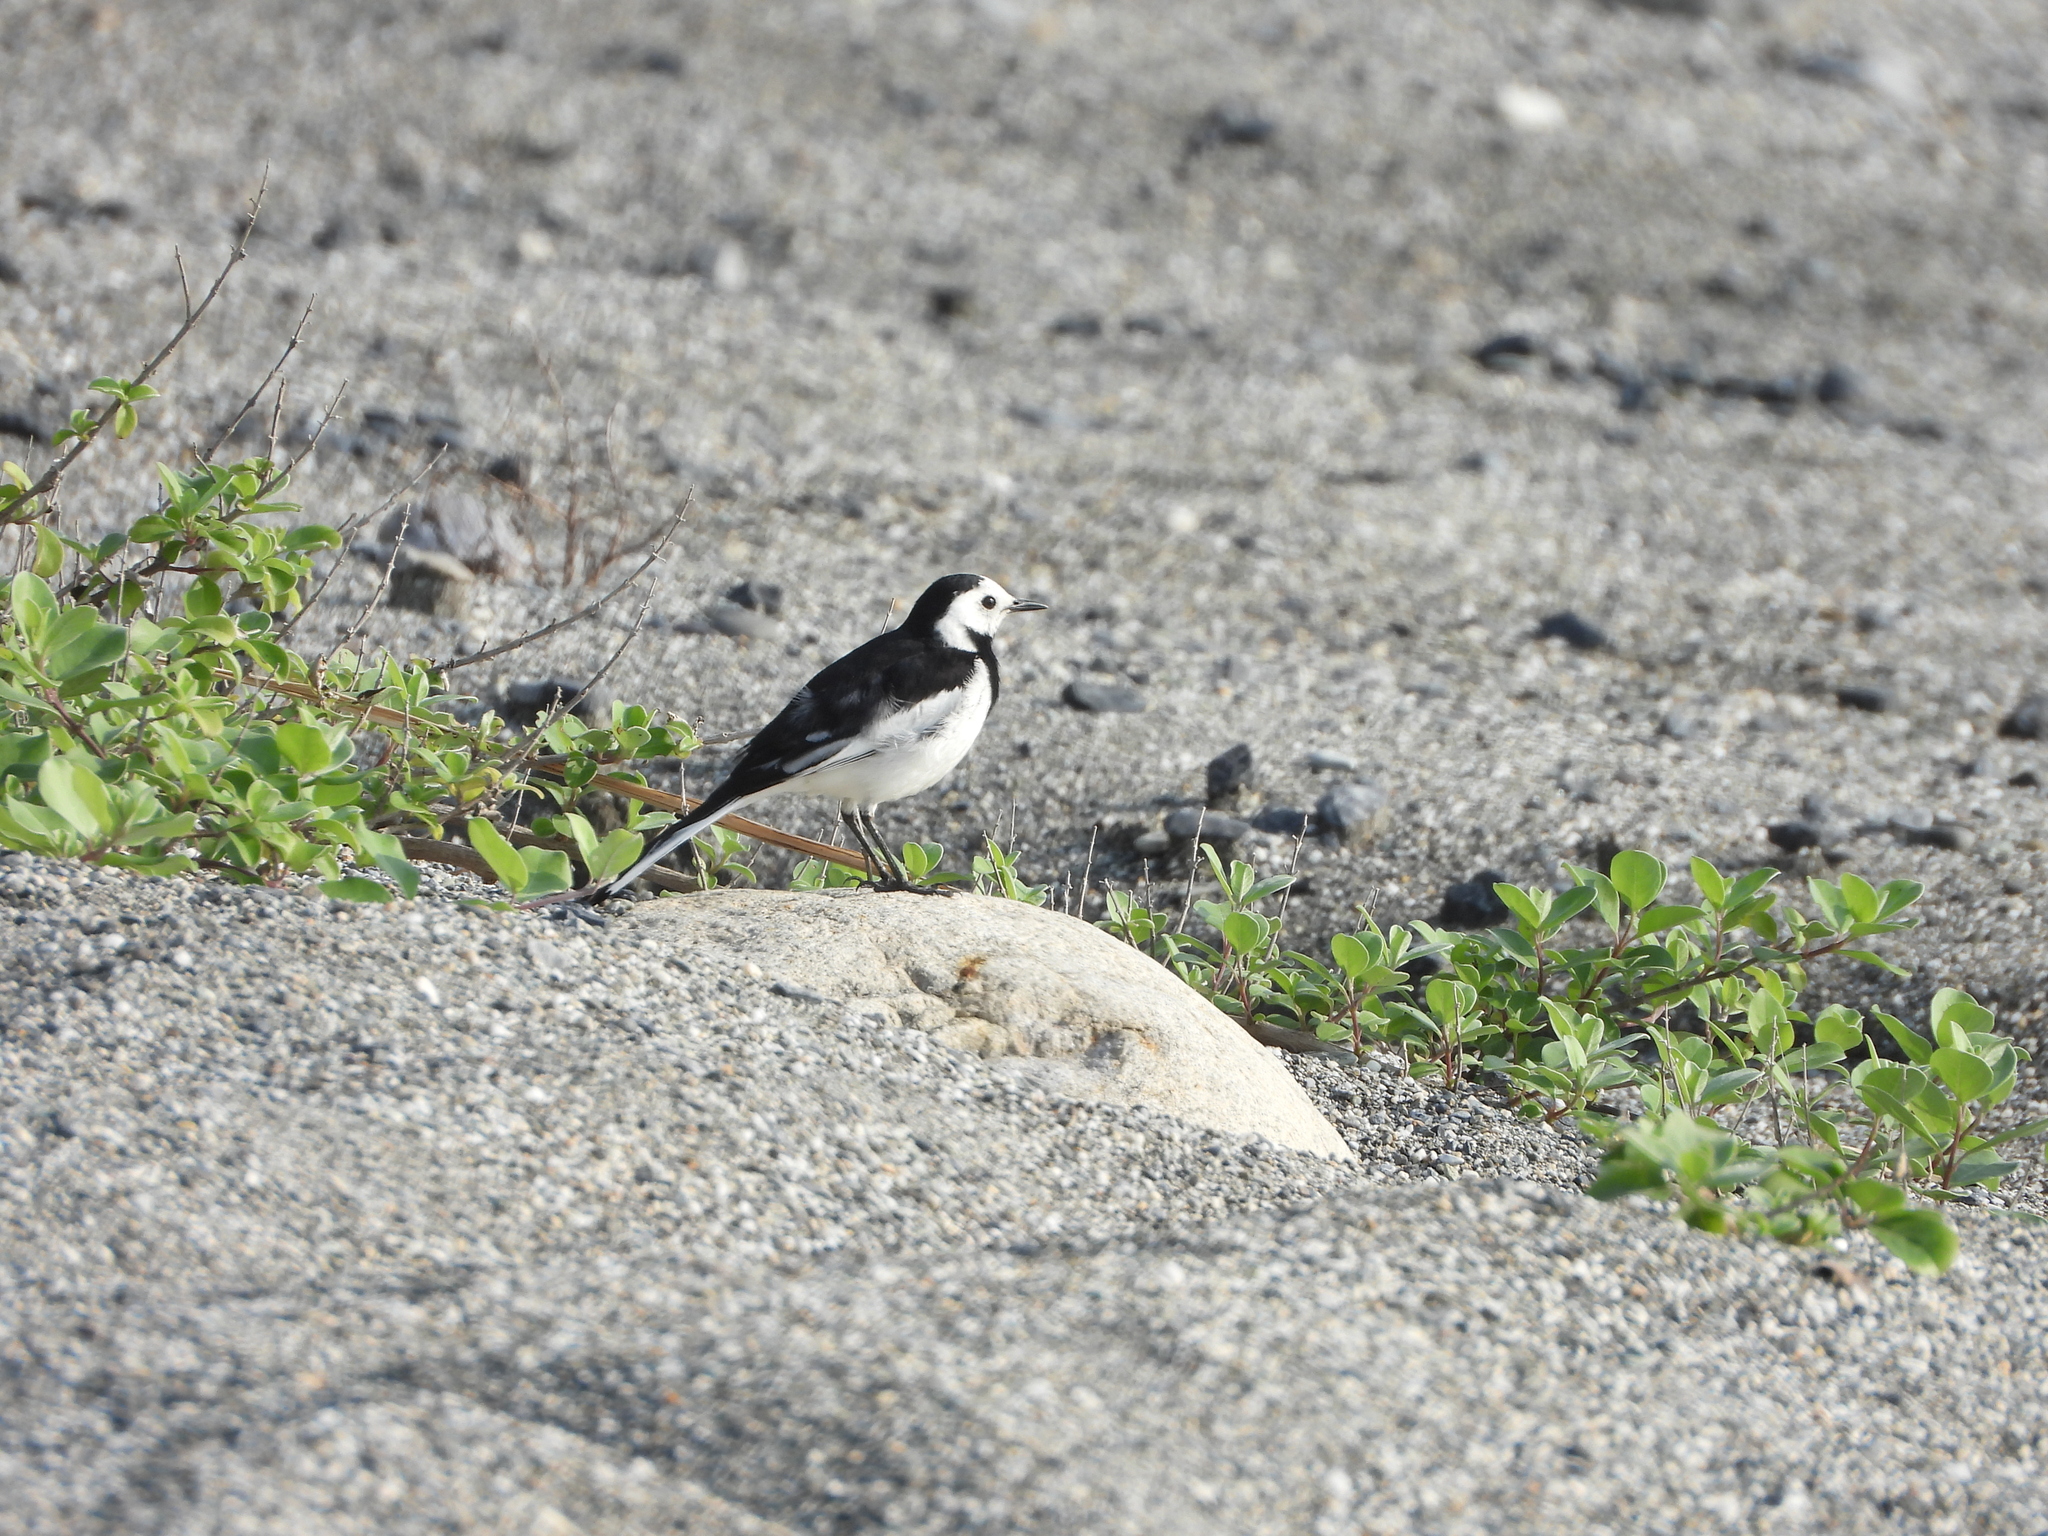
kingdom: Animalia
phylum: Chordata
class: Aves
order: Passeriformes
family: Motacillidae
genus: Motacilla
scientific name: Motacilla alba
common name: White wagtail
